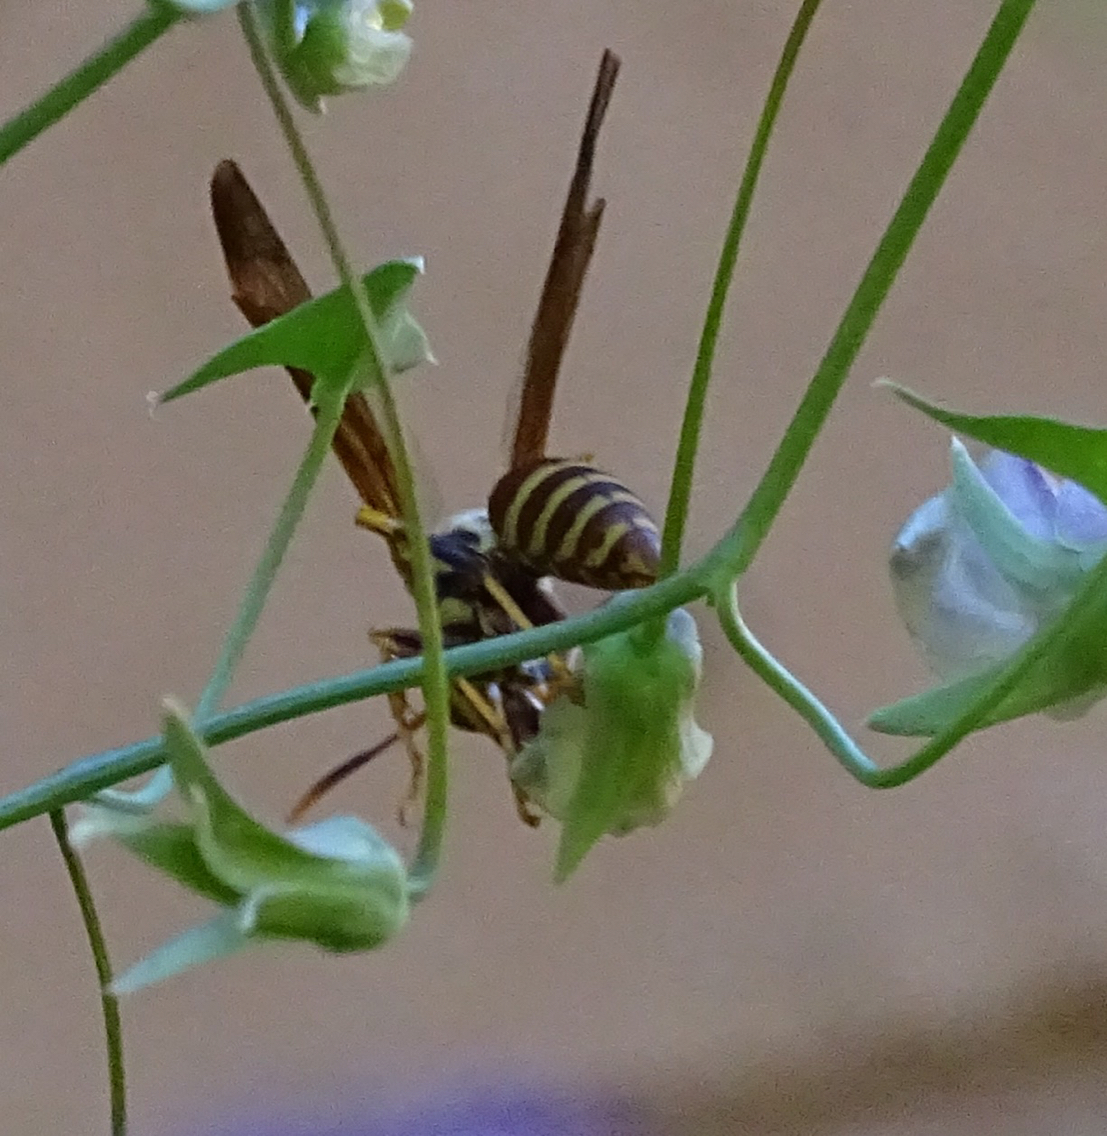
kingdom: Animalia
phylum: Arthropoda
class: Insecta
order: Hymenoptera
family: Eumenidae
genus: Polistes
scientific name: Polistes exclamans
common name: Paper wasp
